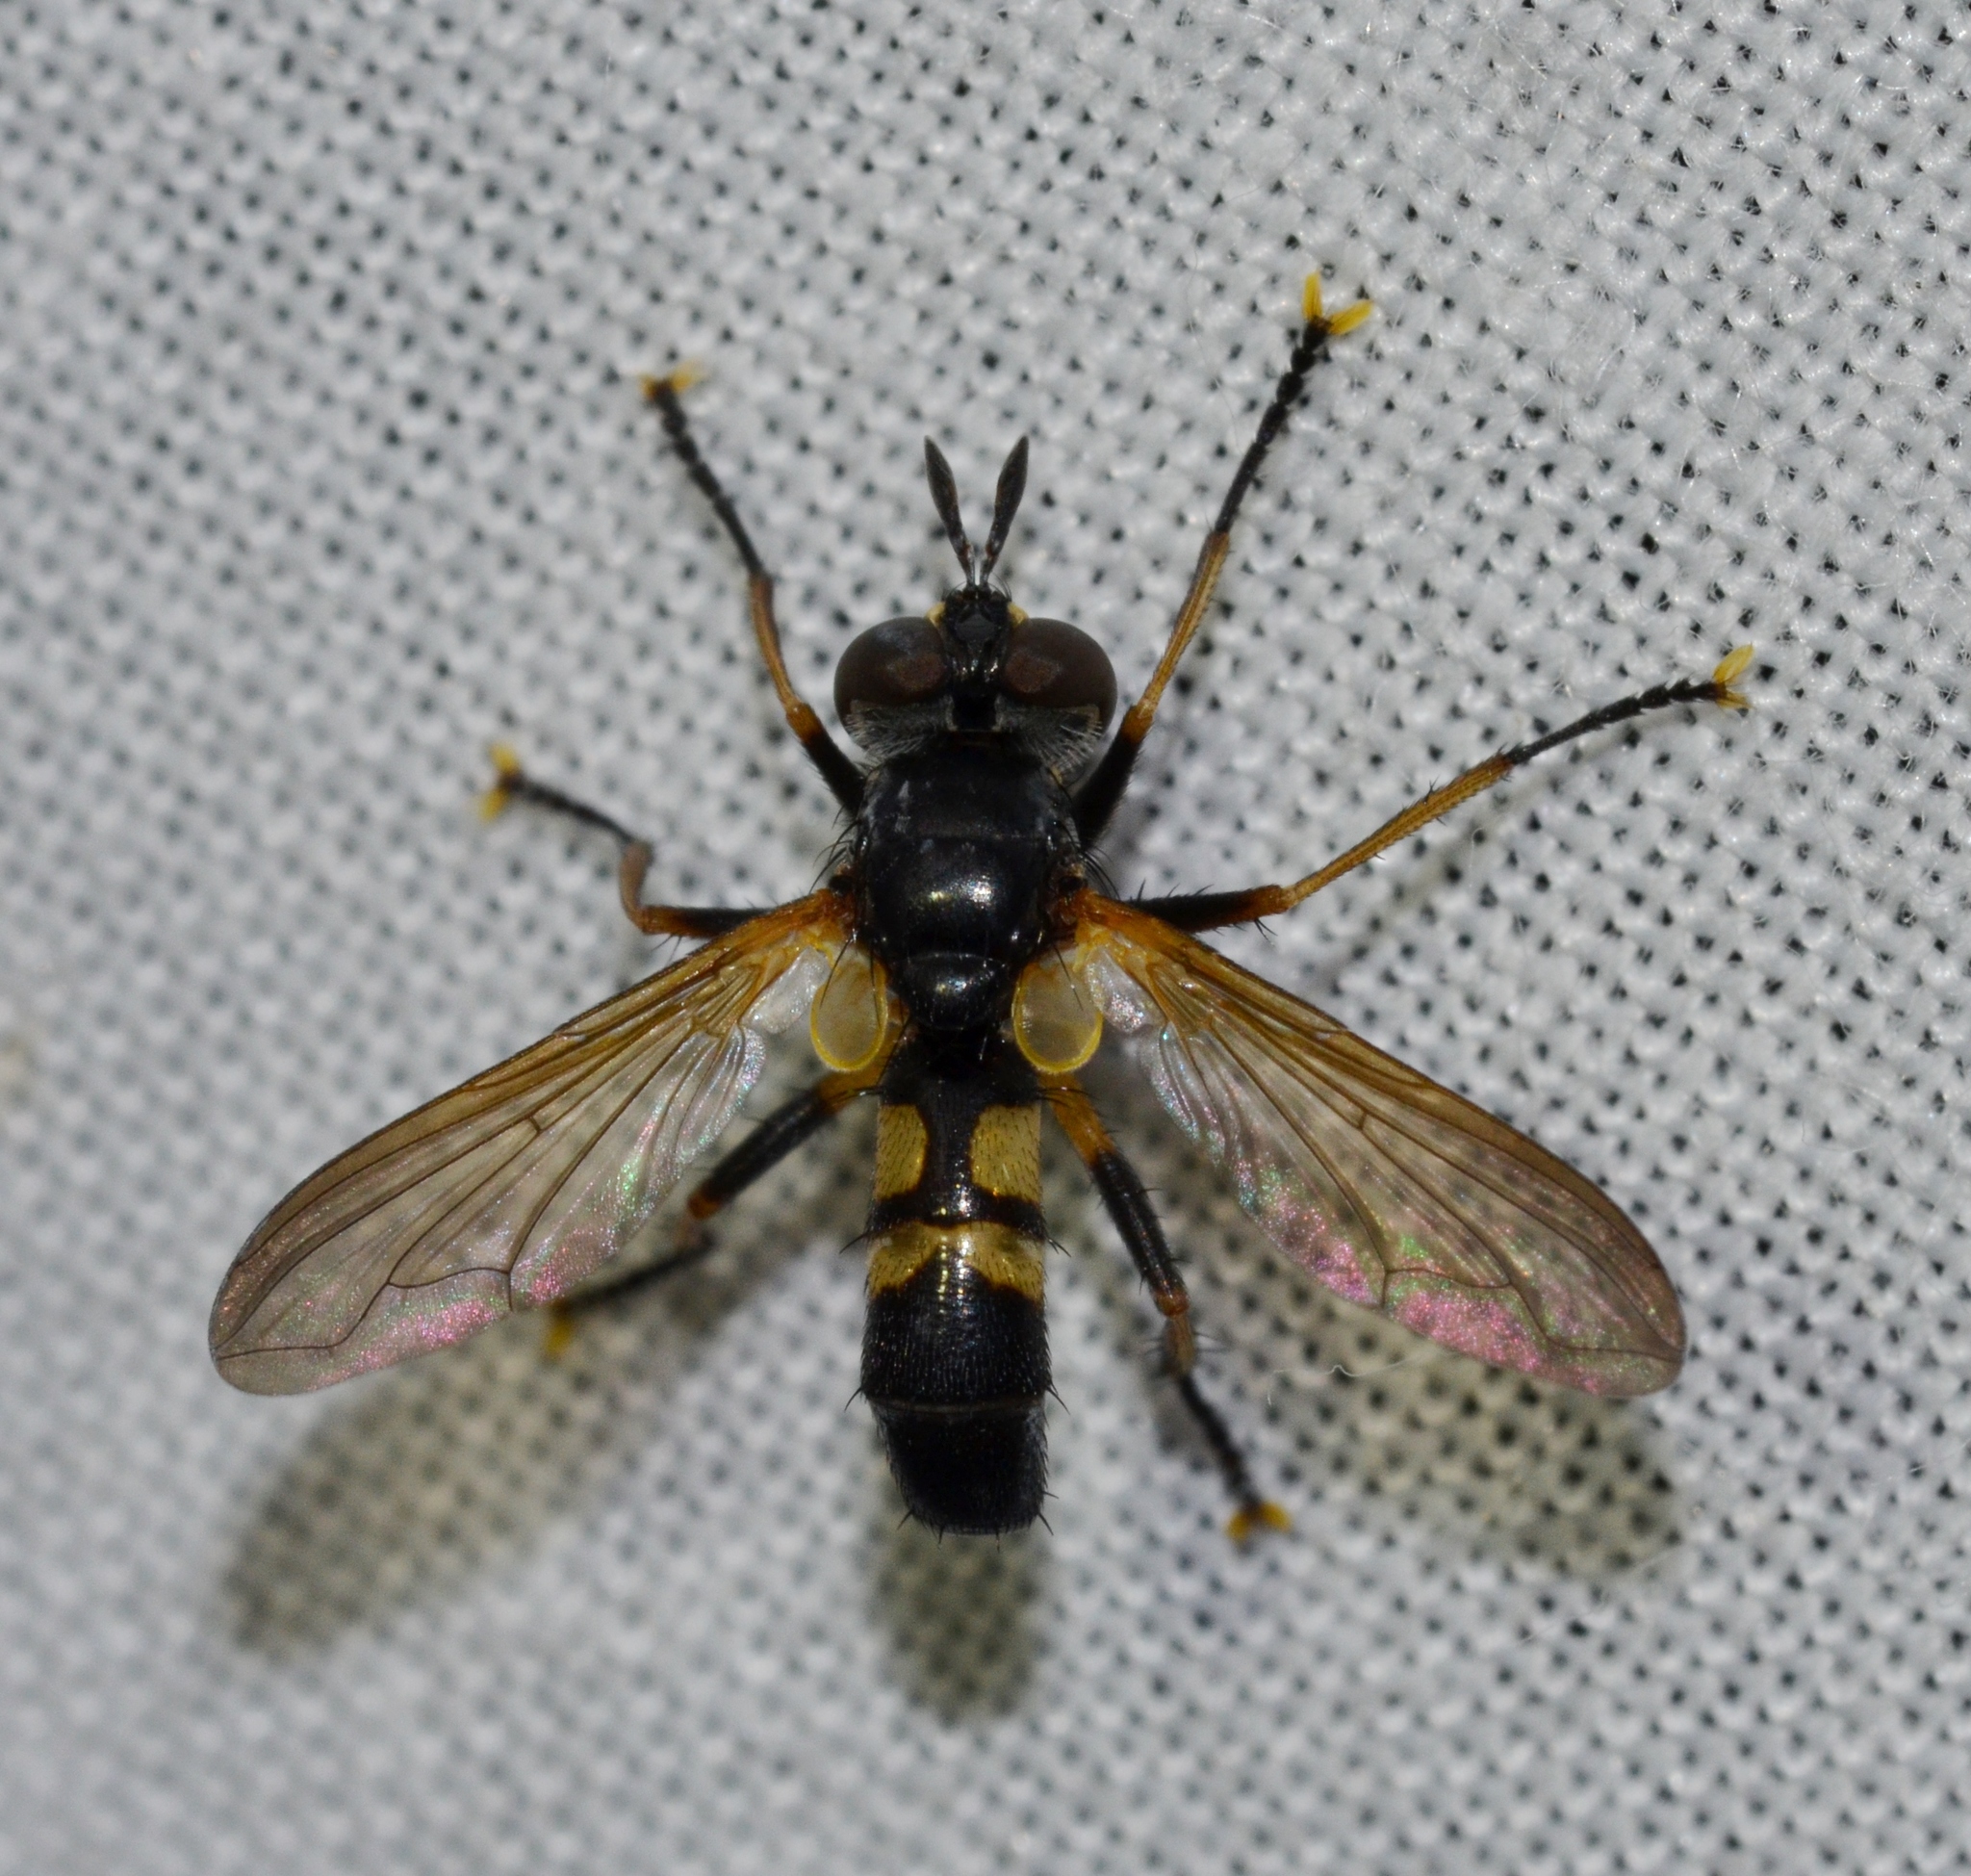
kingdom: Animalia
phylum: Arthropoda
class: Insecta
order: Diptera
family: Tachinidae
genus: Hemyda
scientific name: Hemyda aurata
